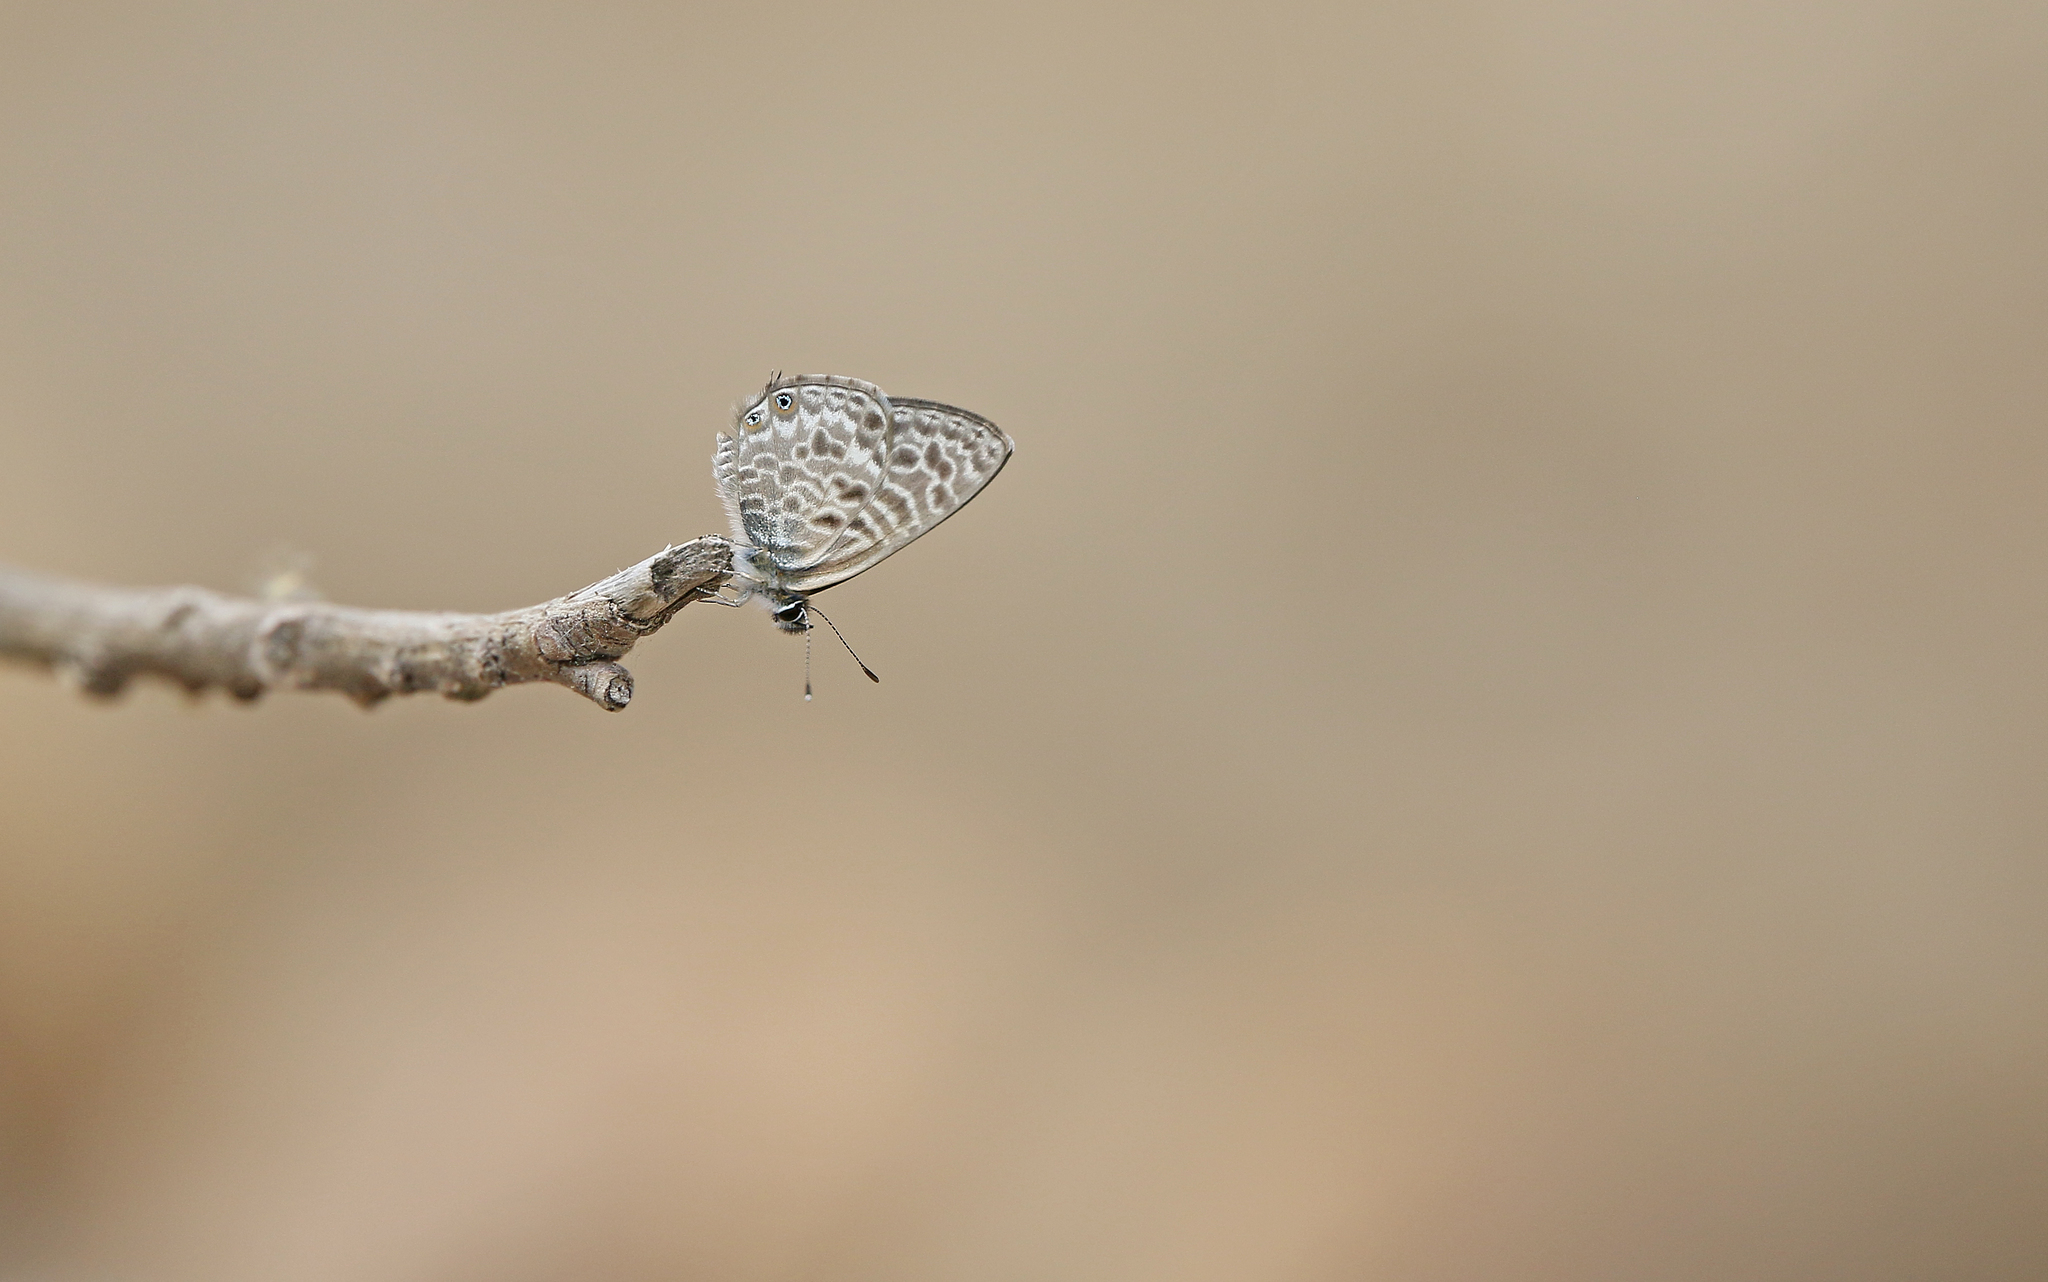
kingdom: Animalia
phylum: Arthropoda
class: Insecta
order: Lepidoptera
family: Lycaenidae
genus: Leptotes
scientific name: Leptotes pirithous
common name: Lang's short-tailed blue
